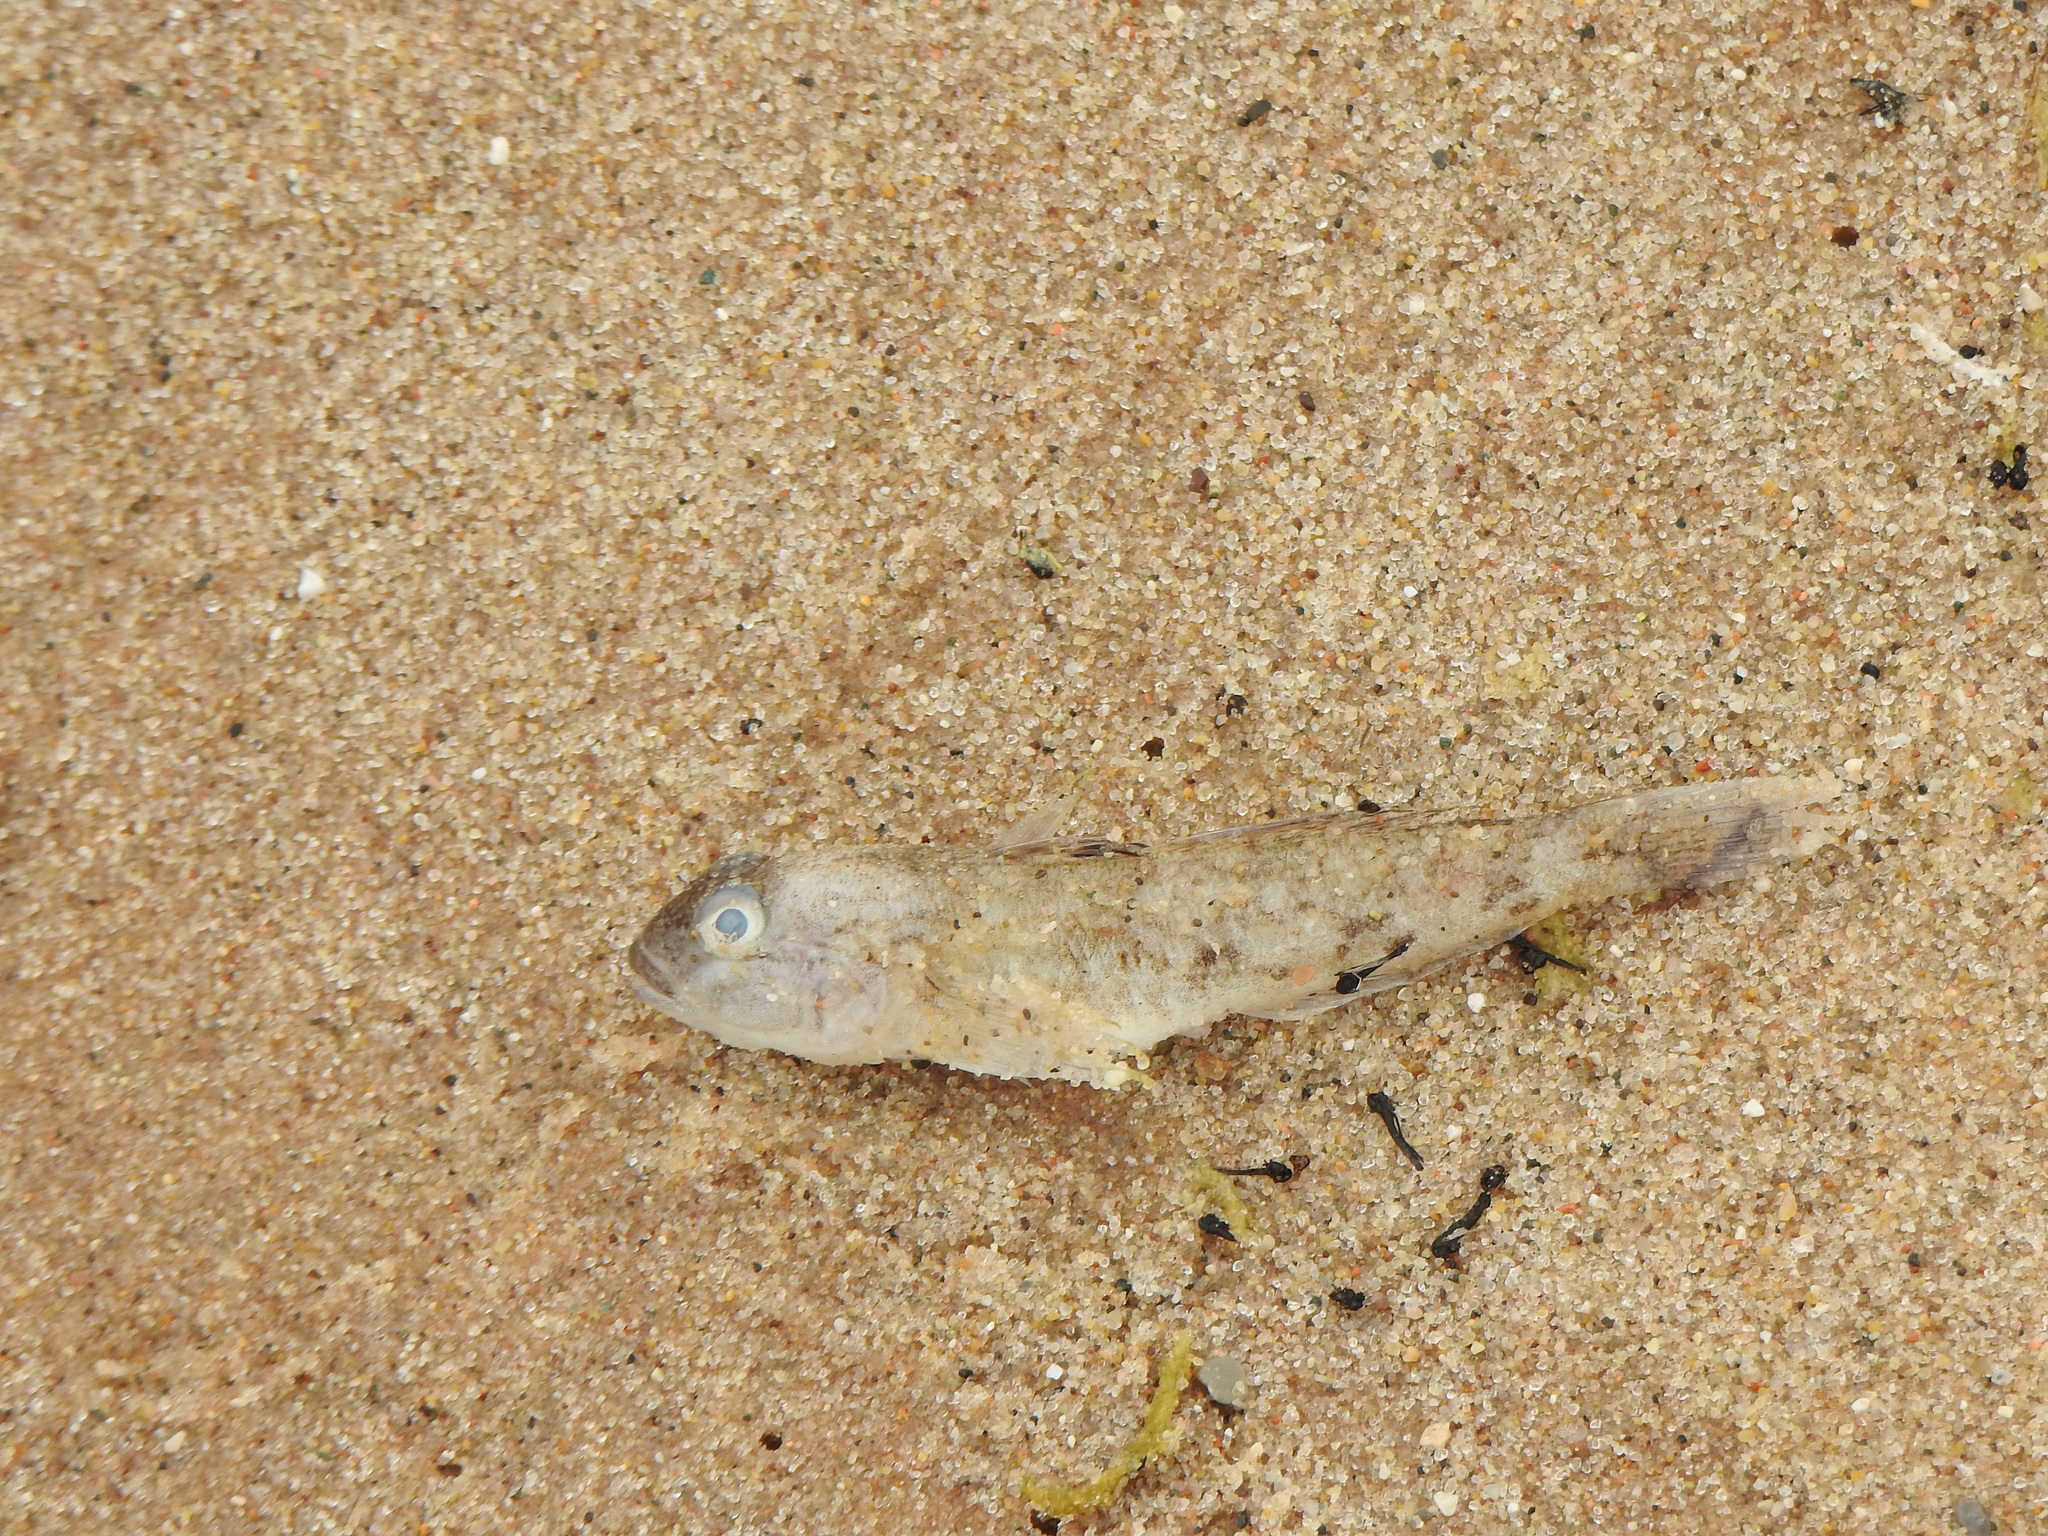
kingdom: Animalia
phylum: Chordata
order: Perciformes
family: Gobiidae
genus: Neogobius
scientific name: Neogobius melanostomus
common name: Round goby
